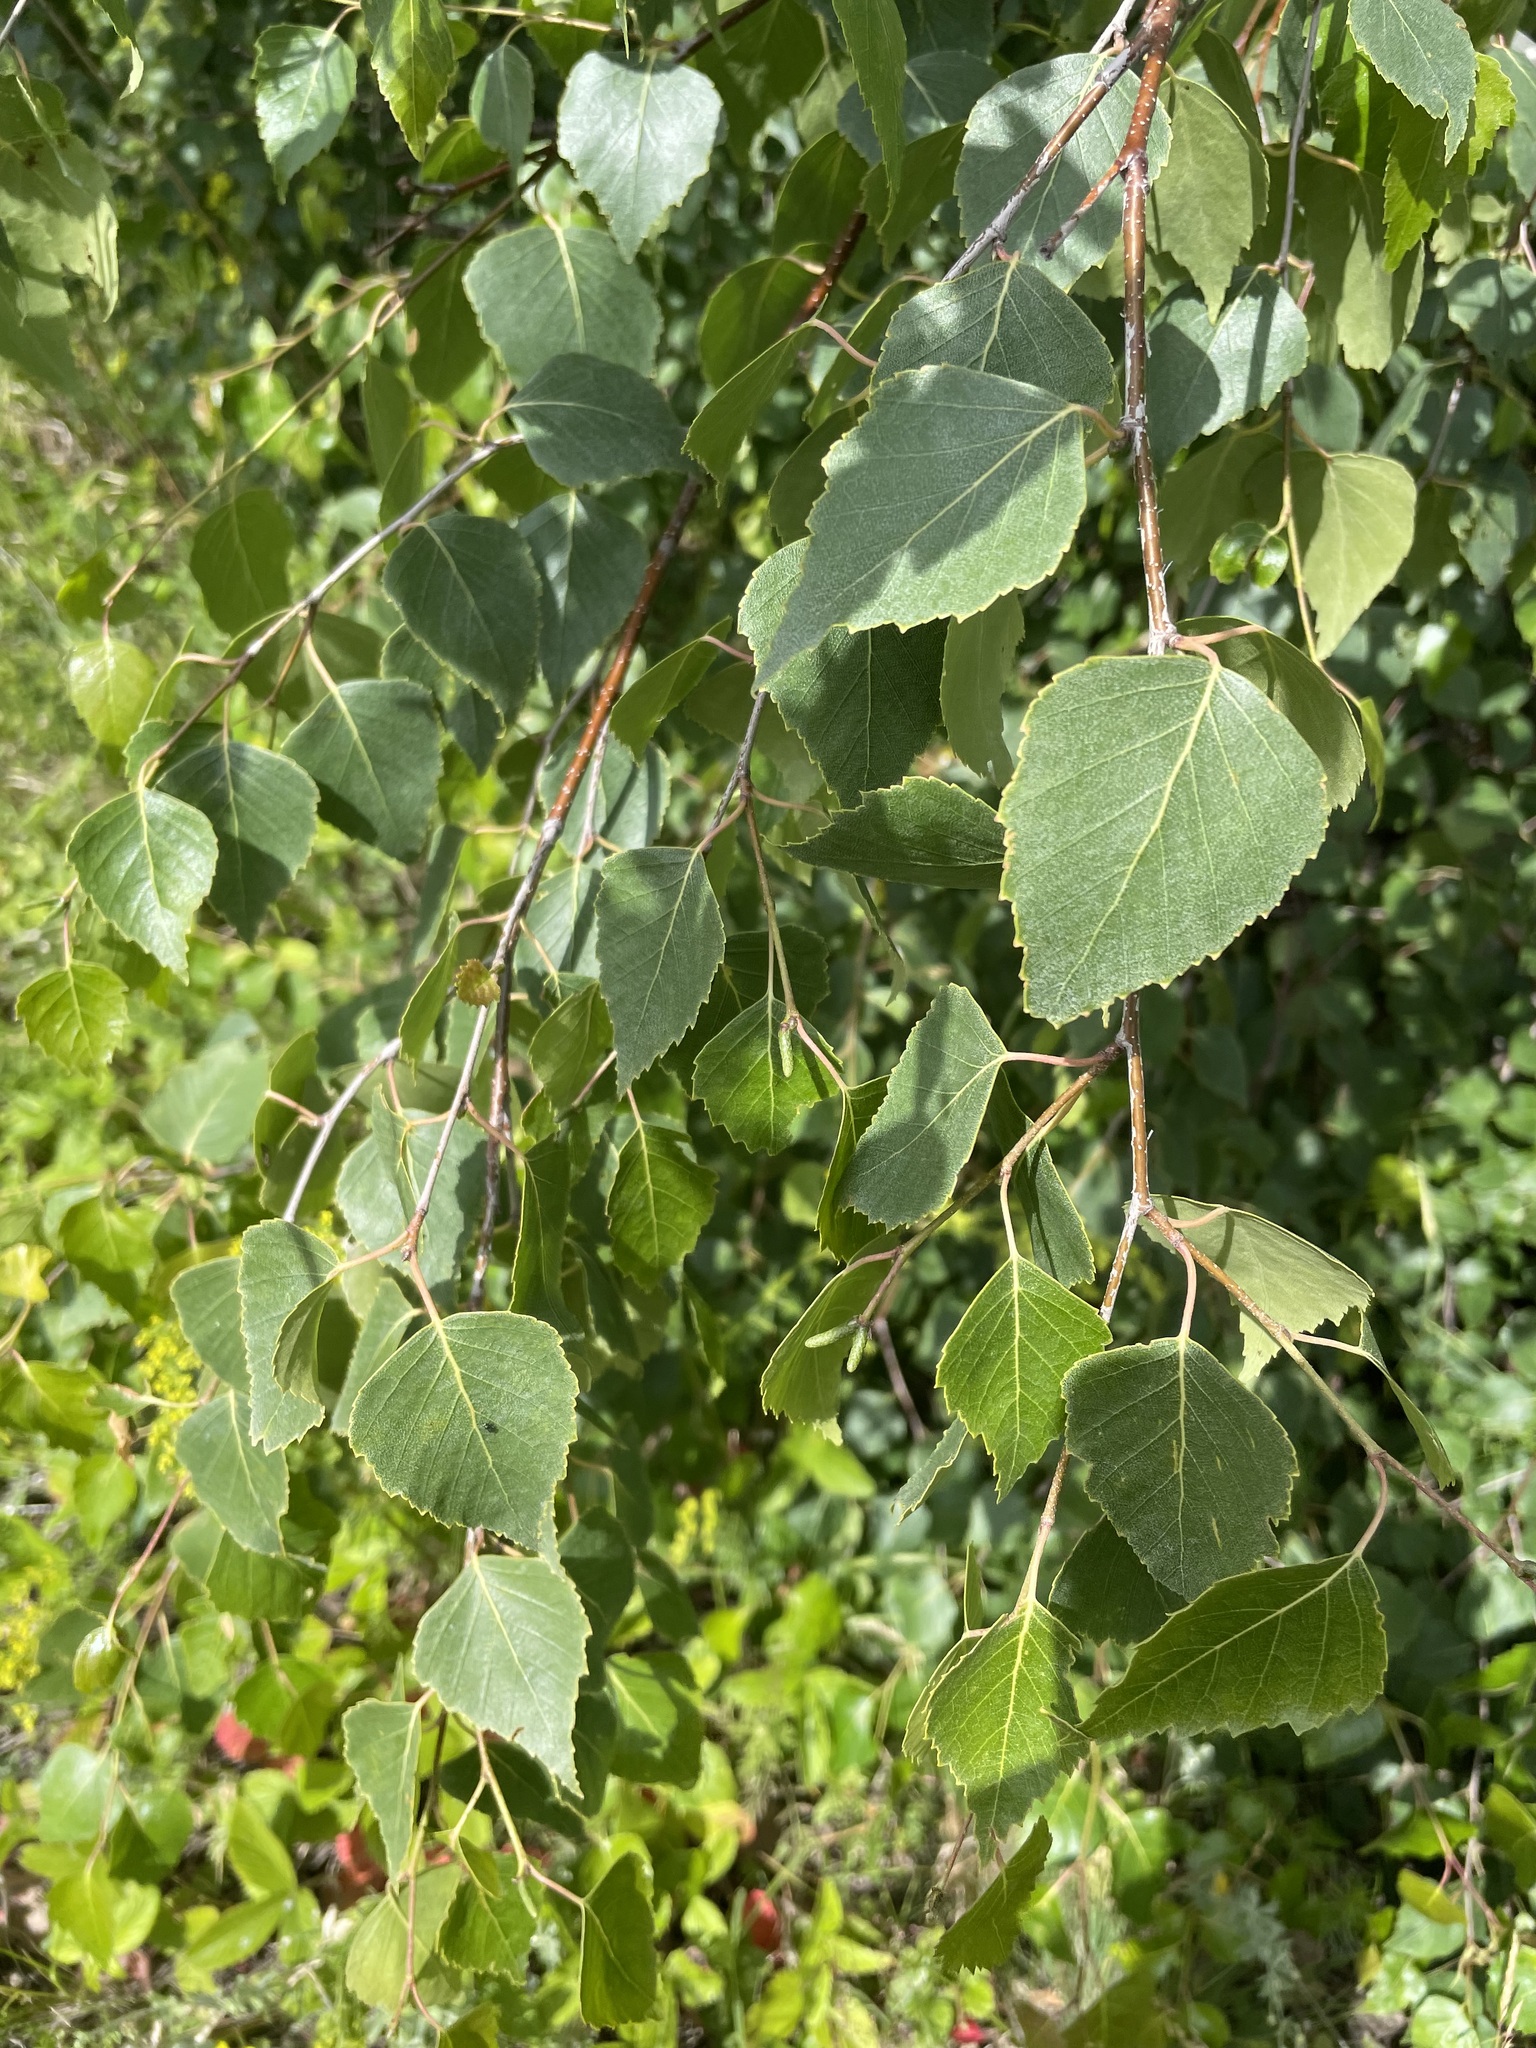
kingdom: Plantae
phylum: Tracheophyta
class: Magnoliopsida
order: Fagales
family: Betulaceae
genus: Betula
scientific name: Betula pendula
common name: Silver birch
